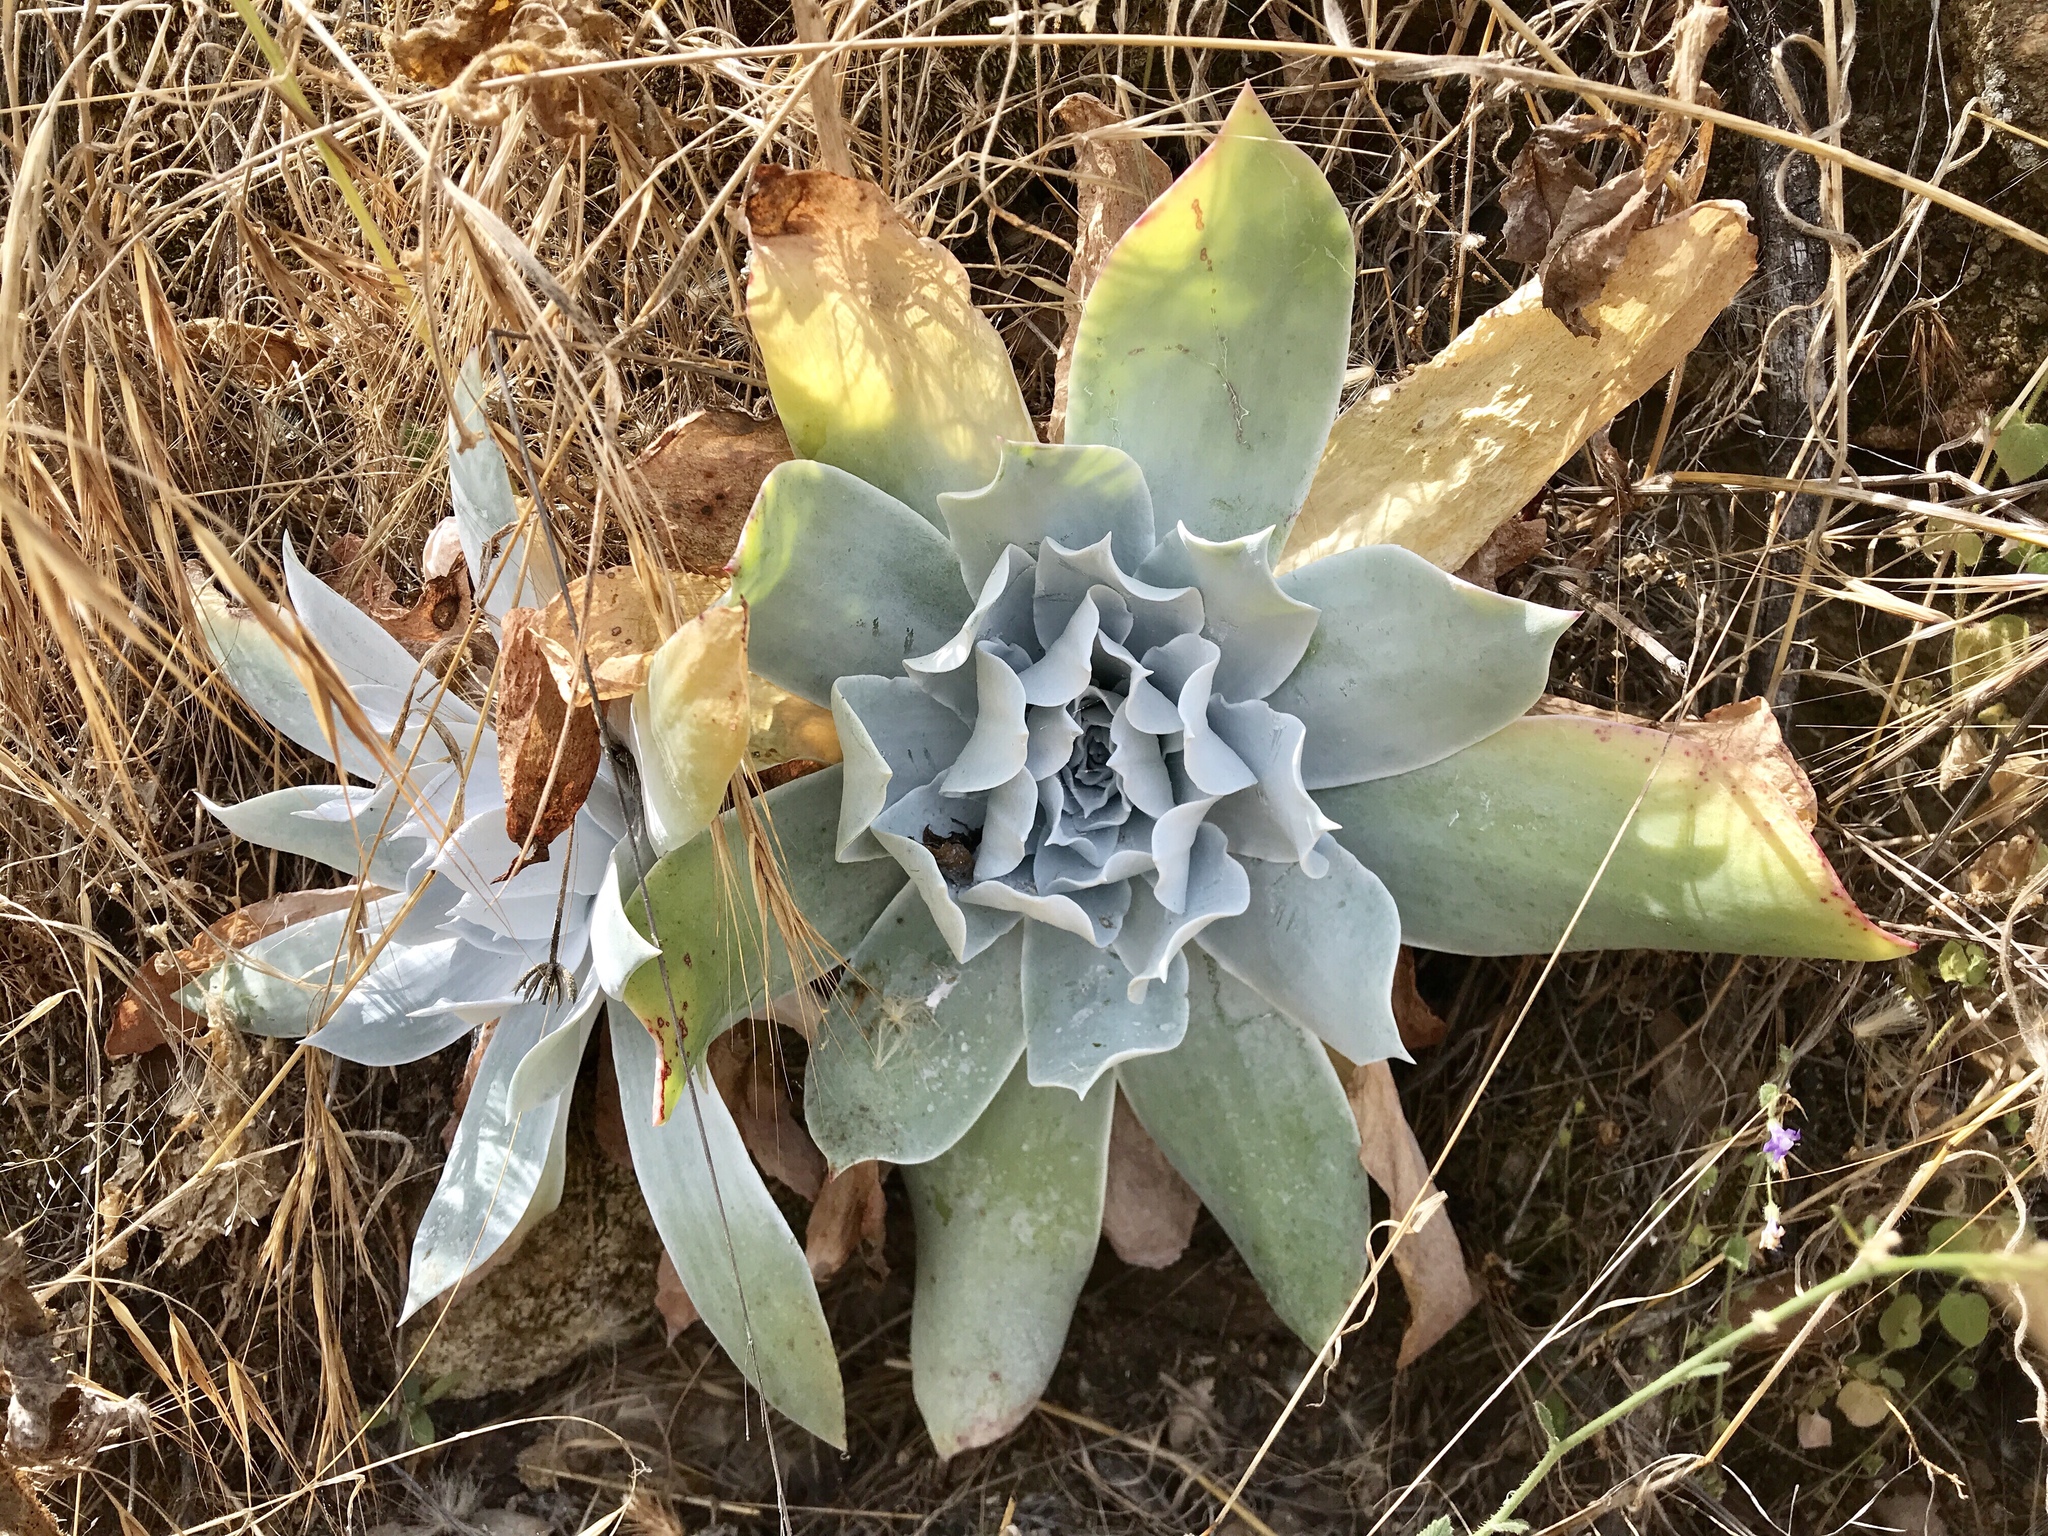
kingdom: Plantae
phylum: Tracheophyta
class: Magnoliopsida
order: Saxifragales
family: Crassulaceae
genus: Dudleya
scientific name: Dudleya pulverulenta
